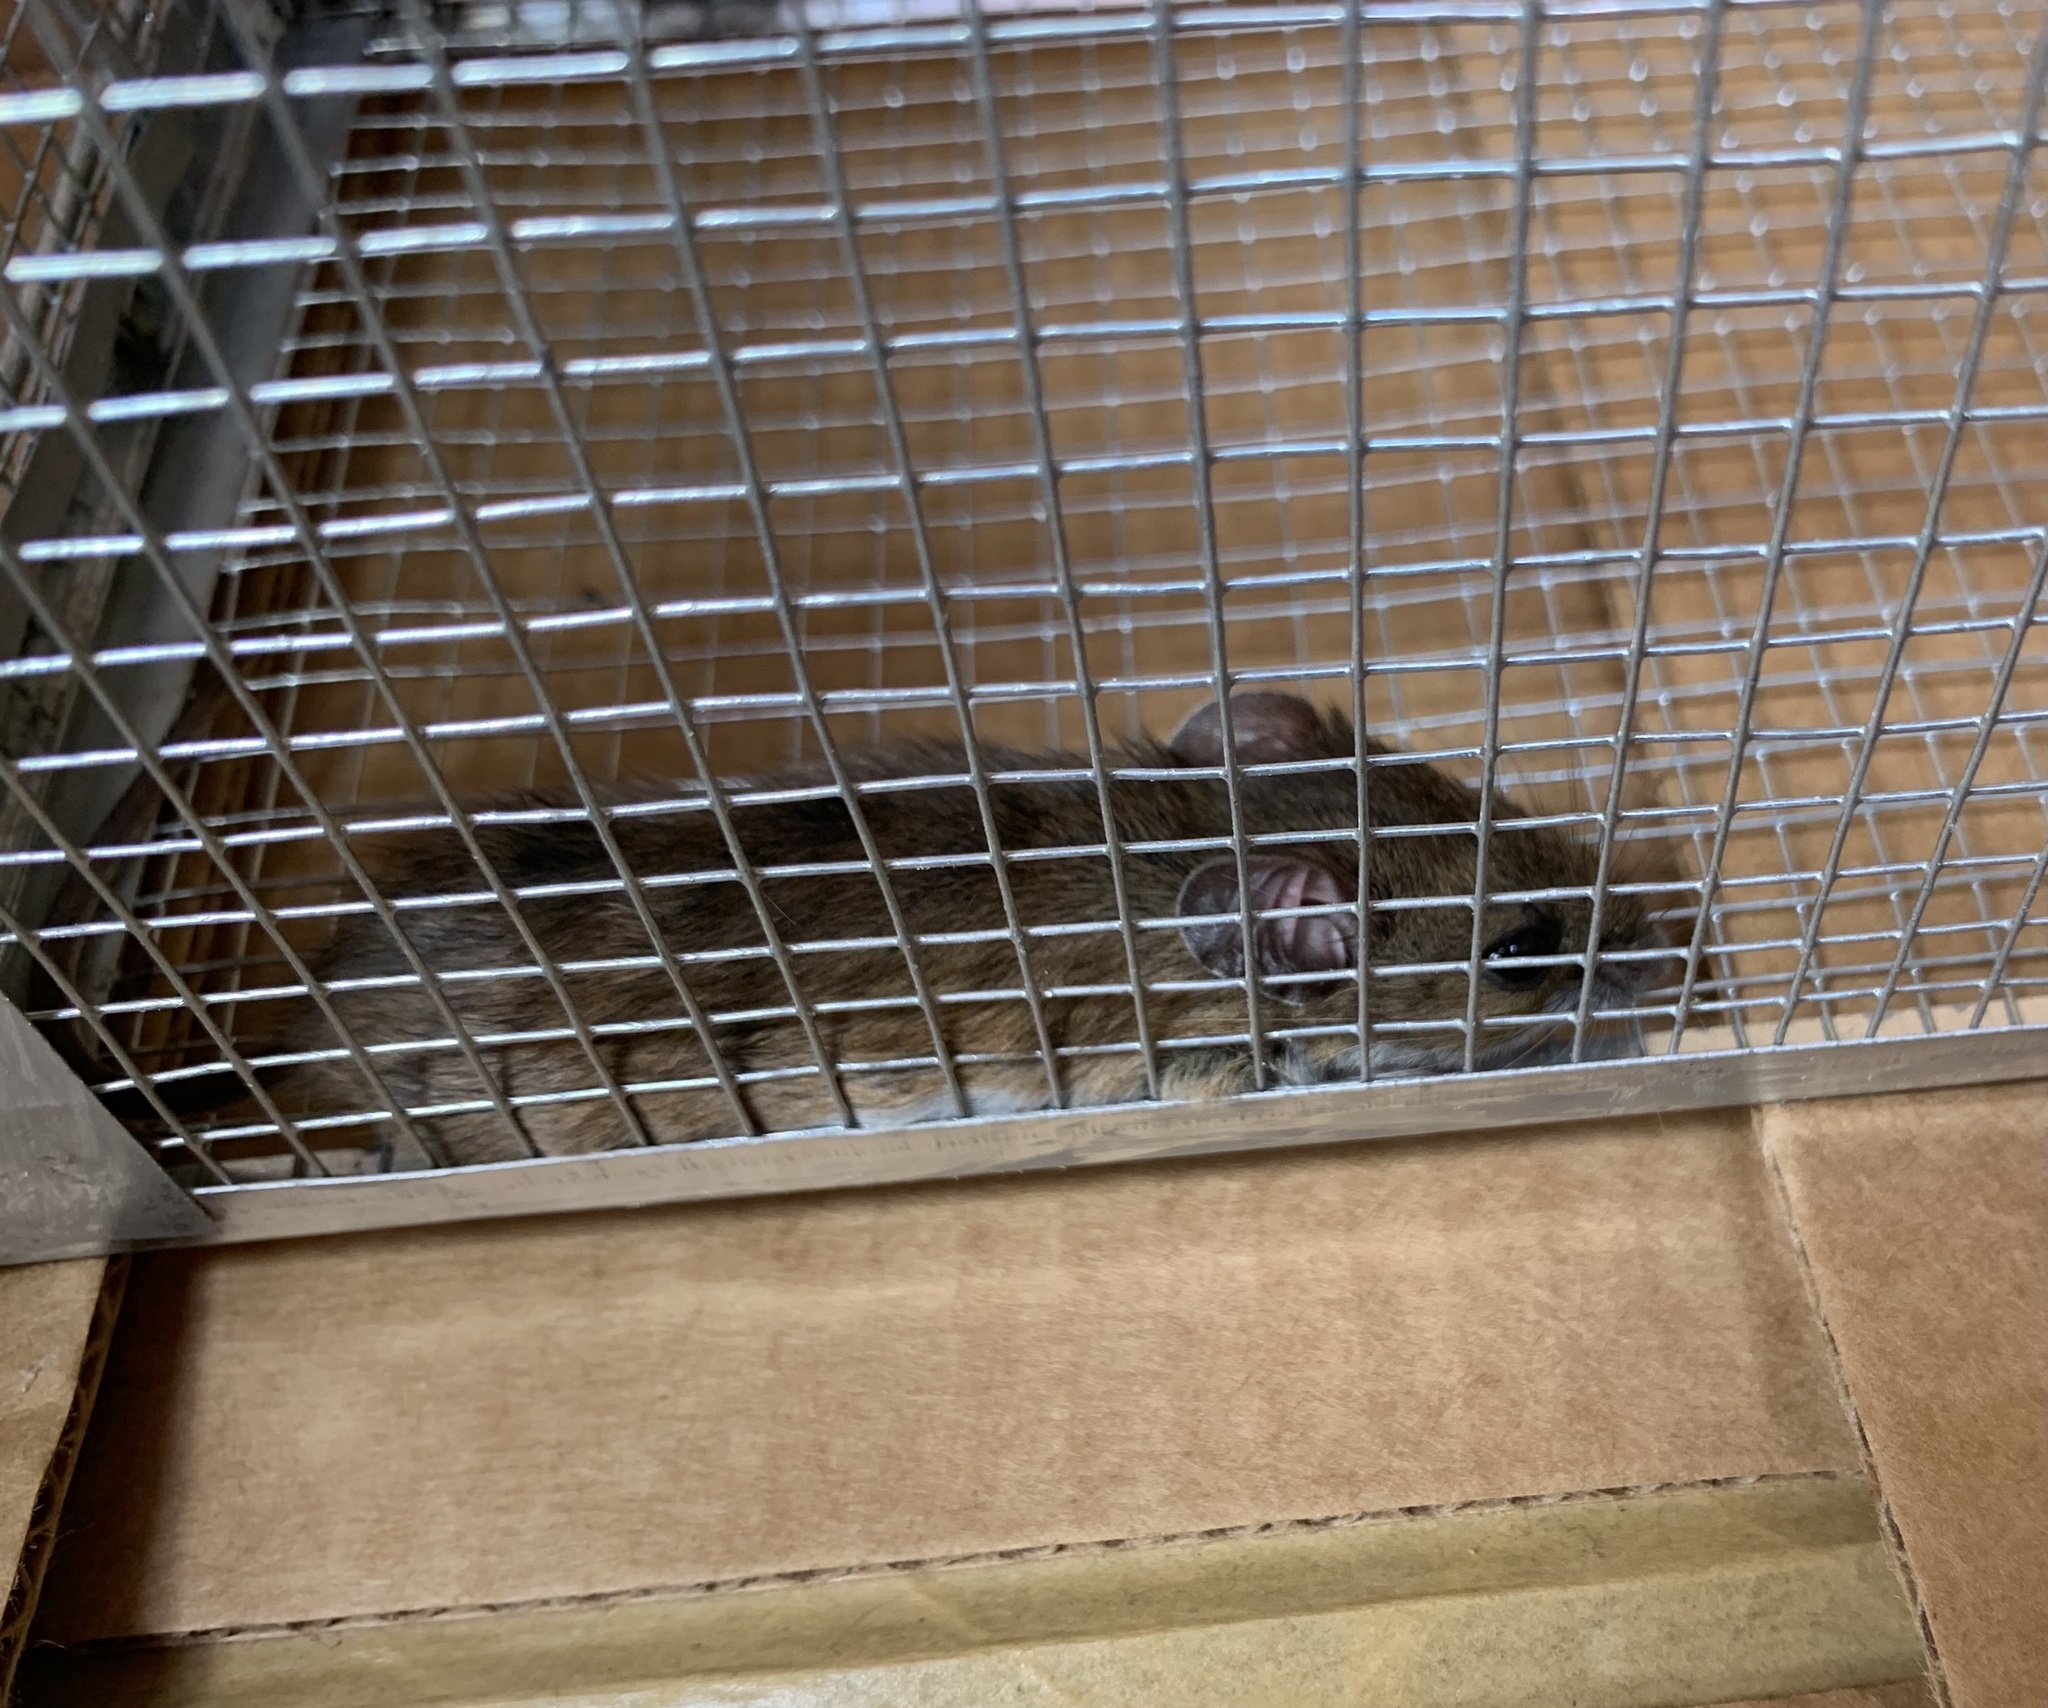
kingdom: Animalia
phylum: Chordata
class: Mammalia
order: Rodentia
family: Cricetidae
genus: Peromyscus
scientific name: Peromyscus leucopus
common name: White-footed deermouse
